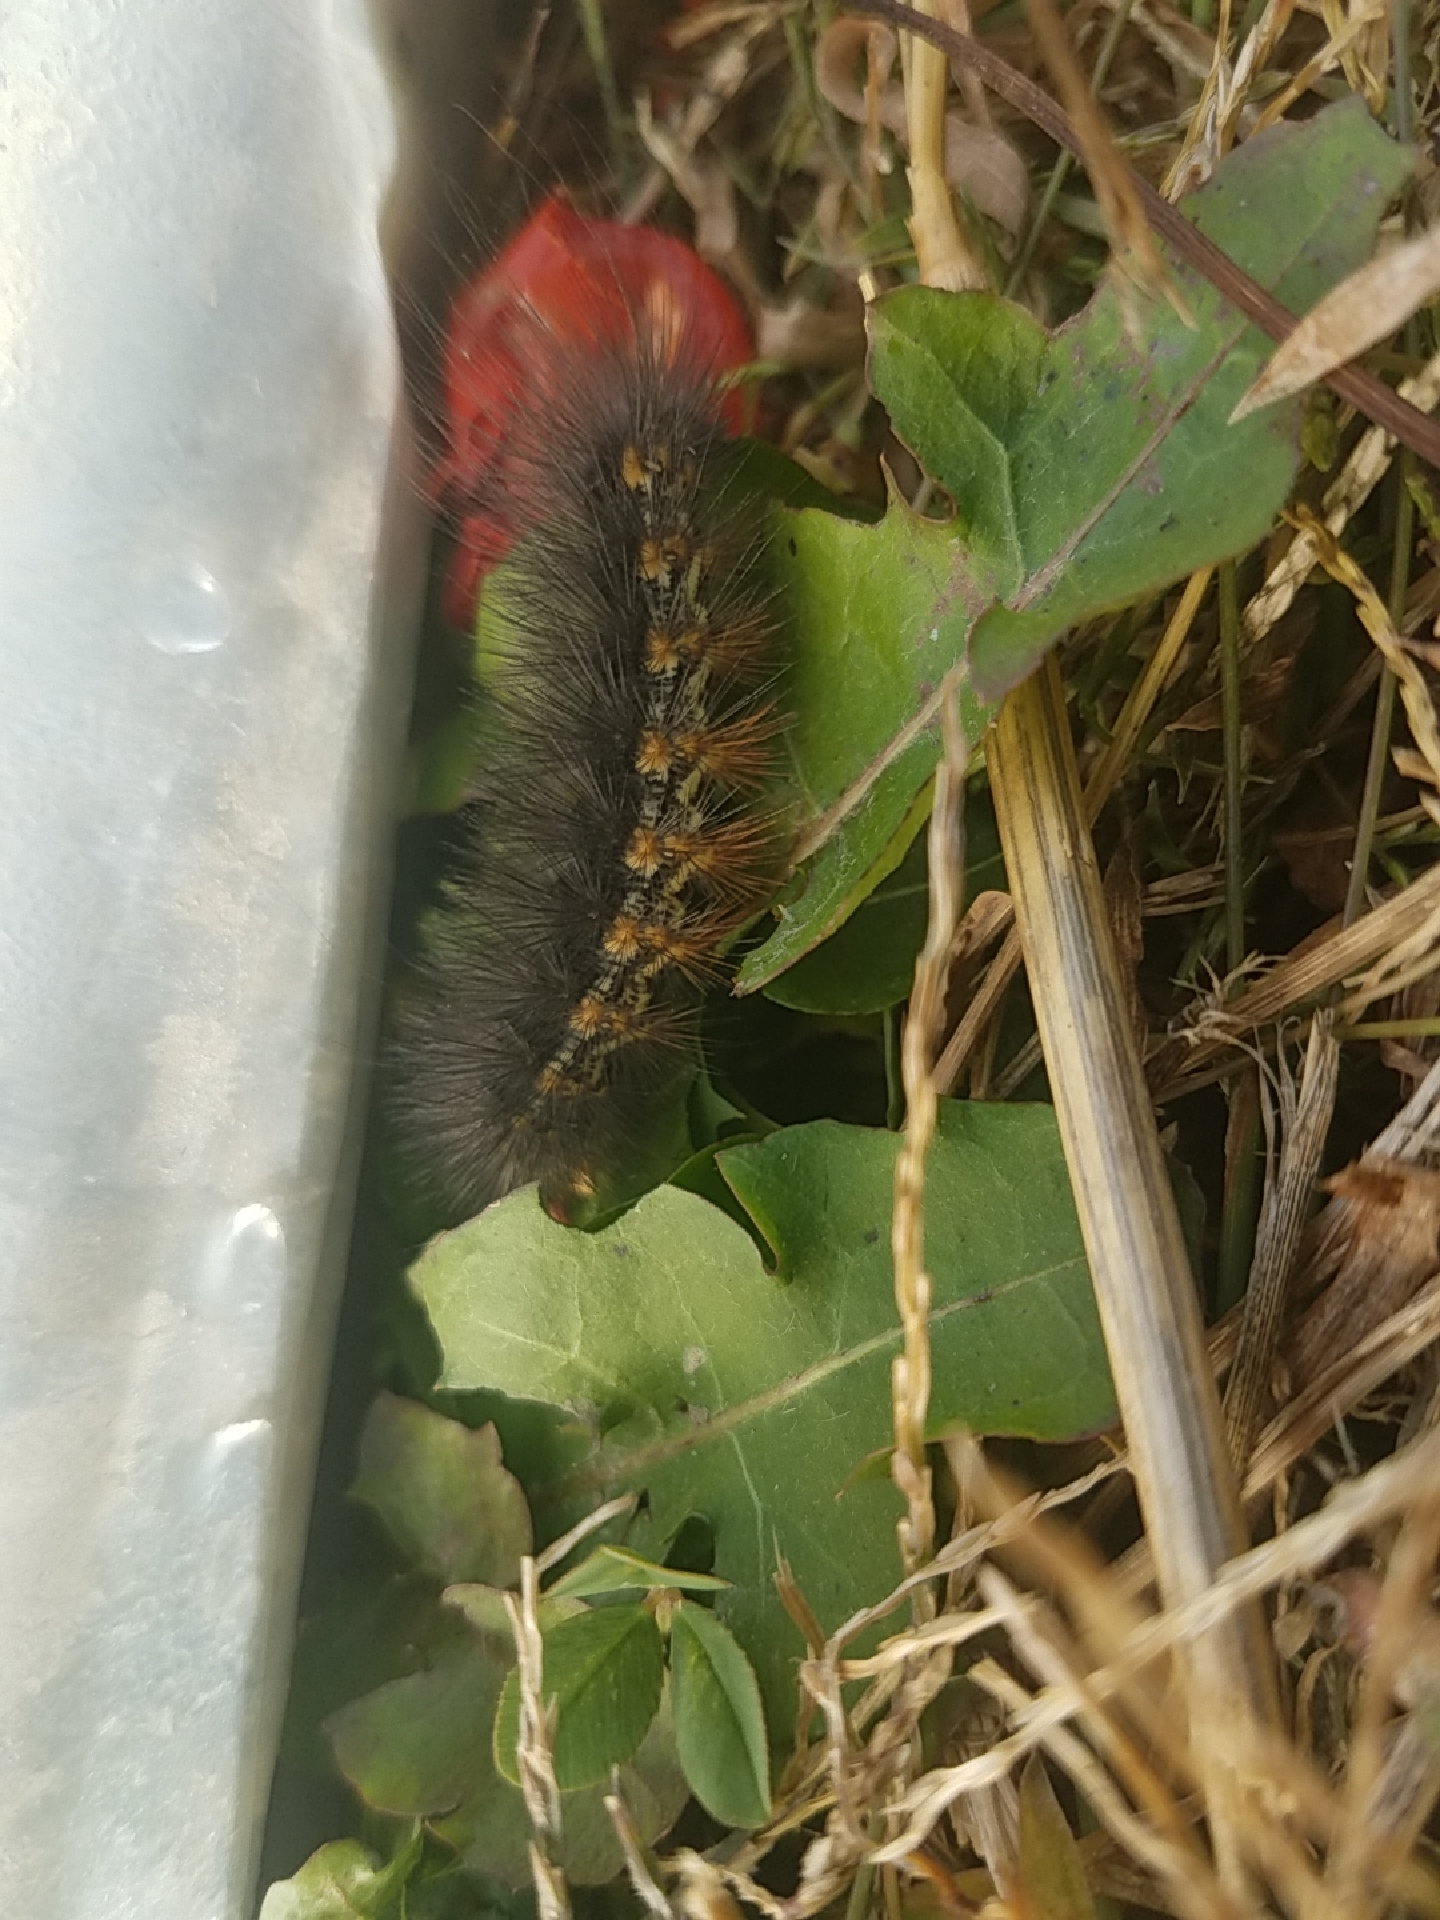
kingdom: Animalia
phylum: Arthropoda
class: Insecta
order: Lepidoptera
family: Erebidae
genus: Estigmene
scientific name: Estigmene acrea
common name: Salt marsh moth
